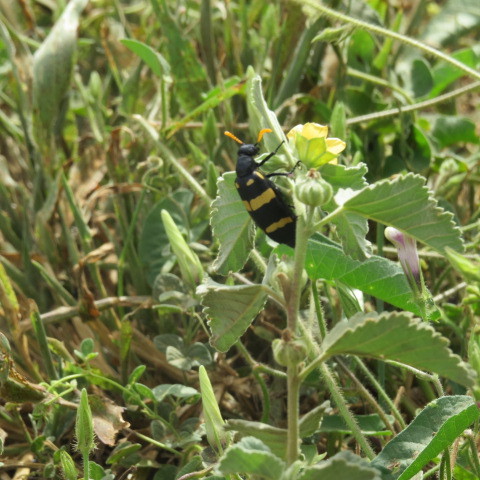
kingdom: Animalia
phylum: Arthropoda
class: Insecta
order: Coleoptera
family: Meloidae
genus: Hycleus
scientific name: Hycleus
